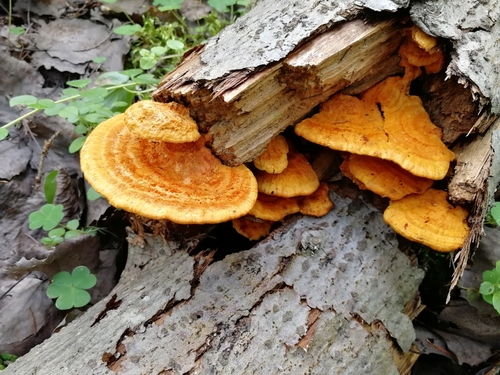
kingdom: Fungi
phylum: Basidiomycota
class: Agaricomycetes
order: Polyporales
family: Pycnoporellaceae
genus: Pycnoporellus
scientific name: Pycnoporellus fulgens
